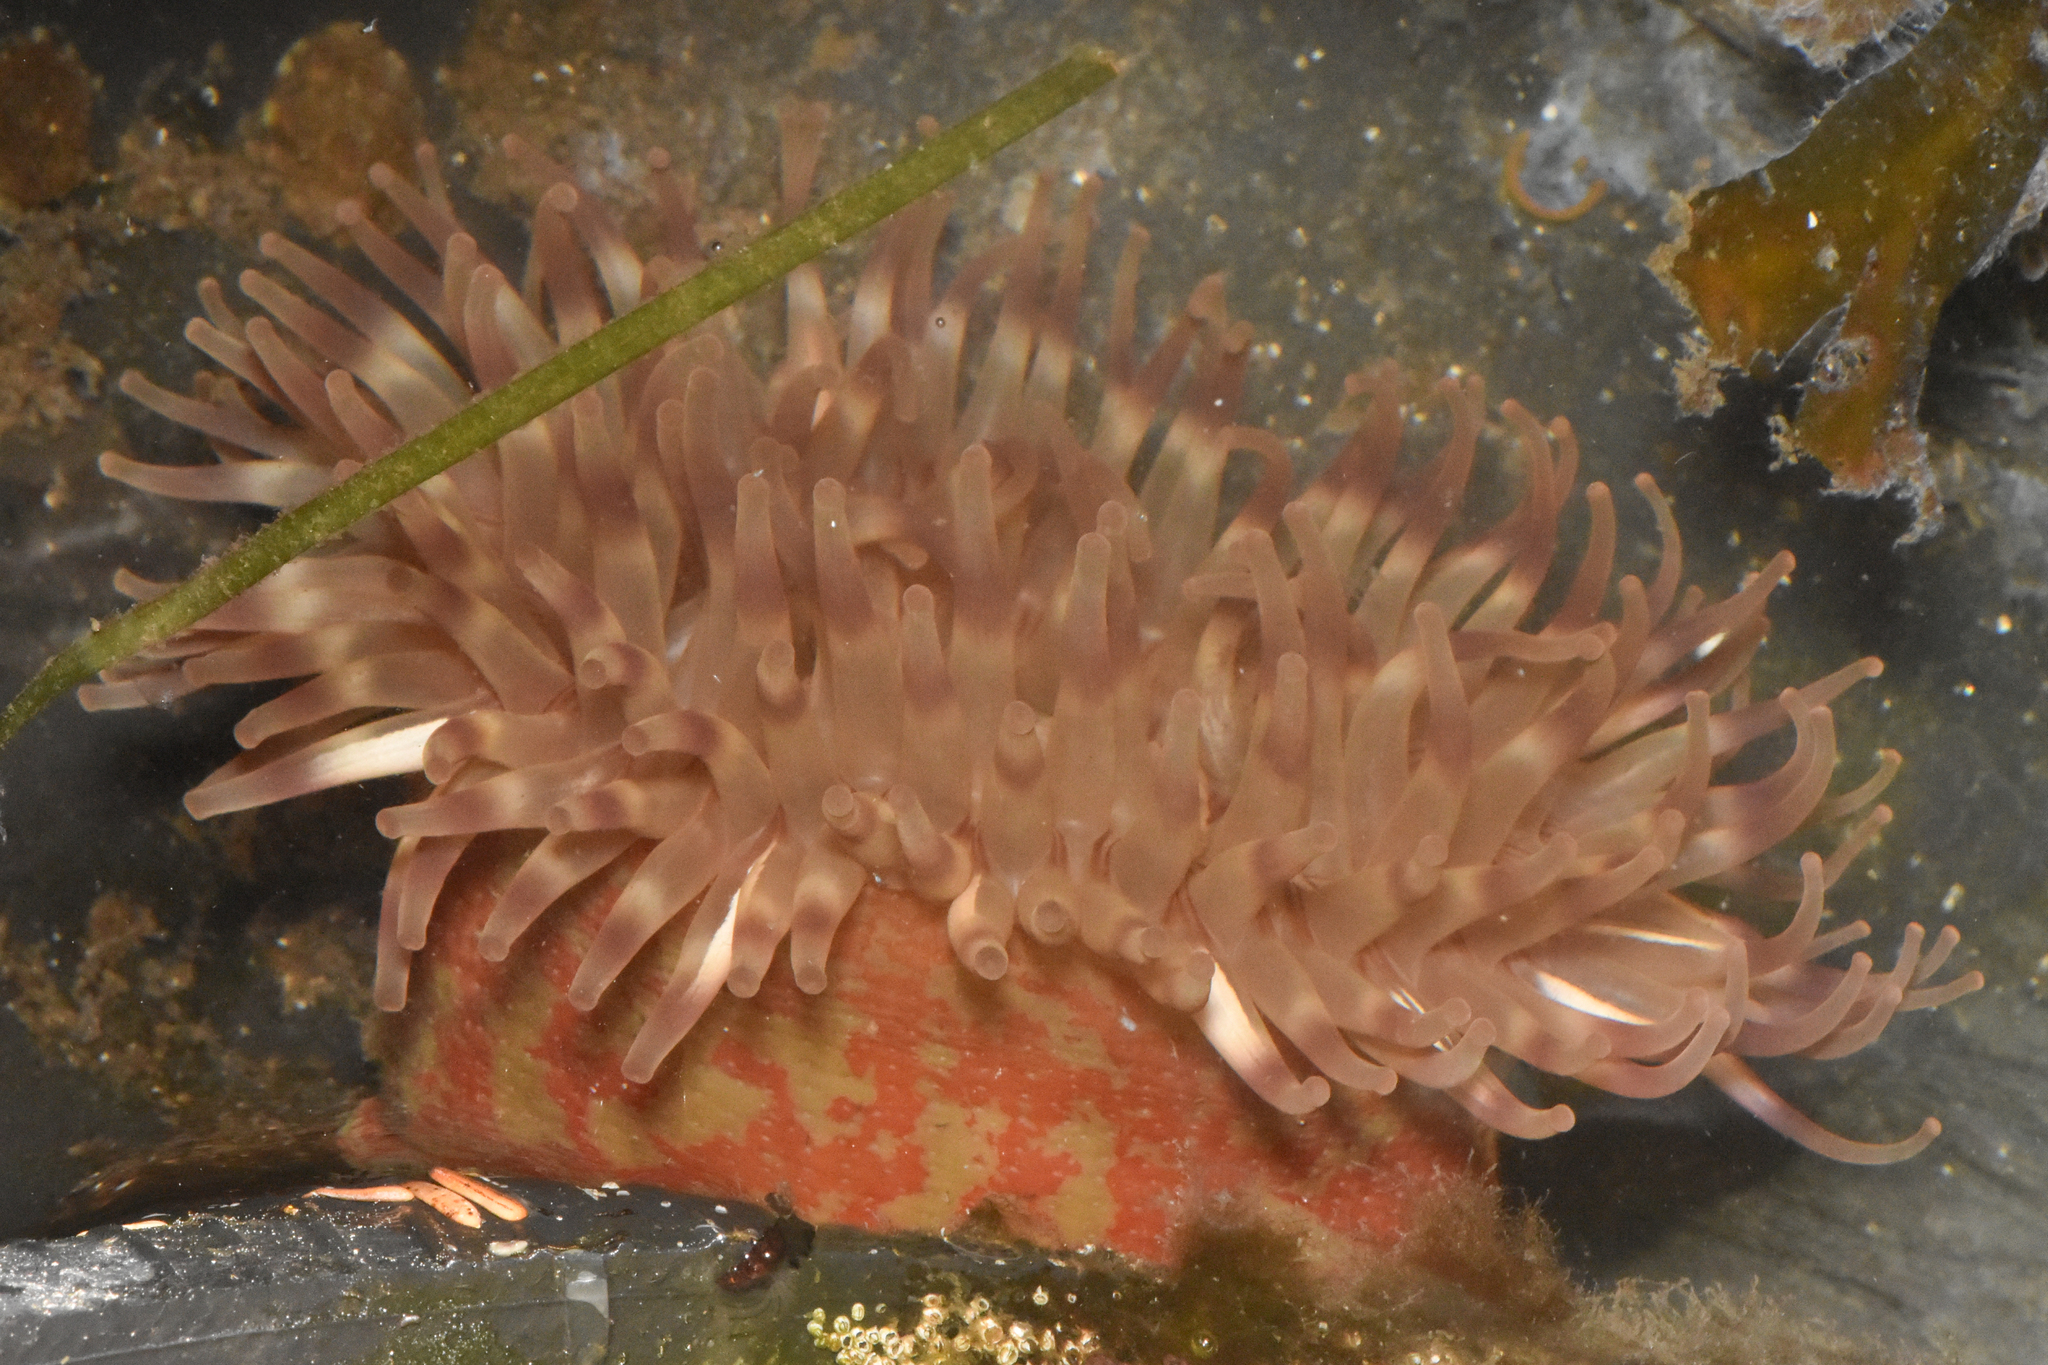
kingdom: Animalia
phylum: Cnidaria
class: Anthozoa
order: Actiniaria
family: Actiniidae
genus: Urticina
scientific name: Urticina grebelnyi
